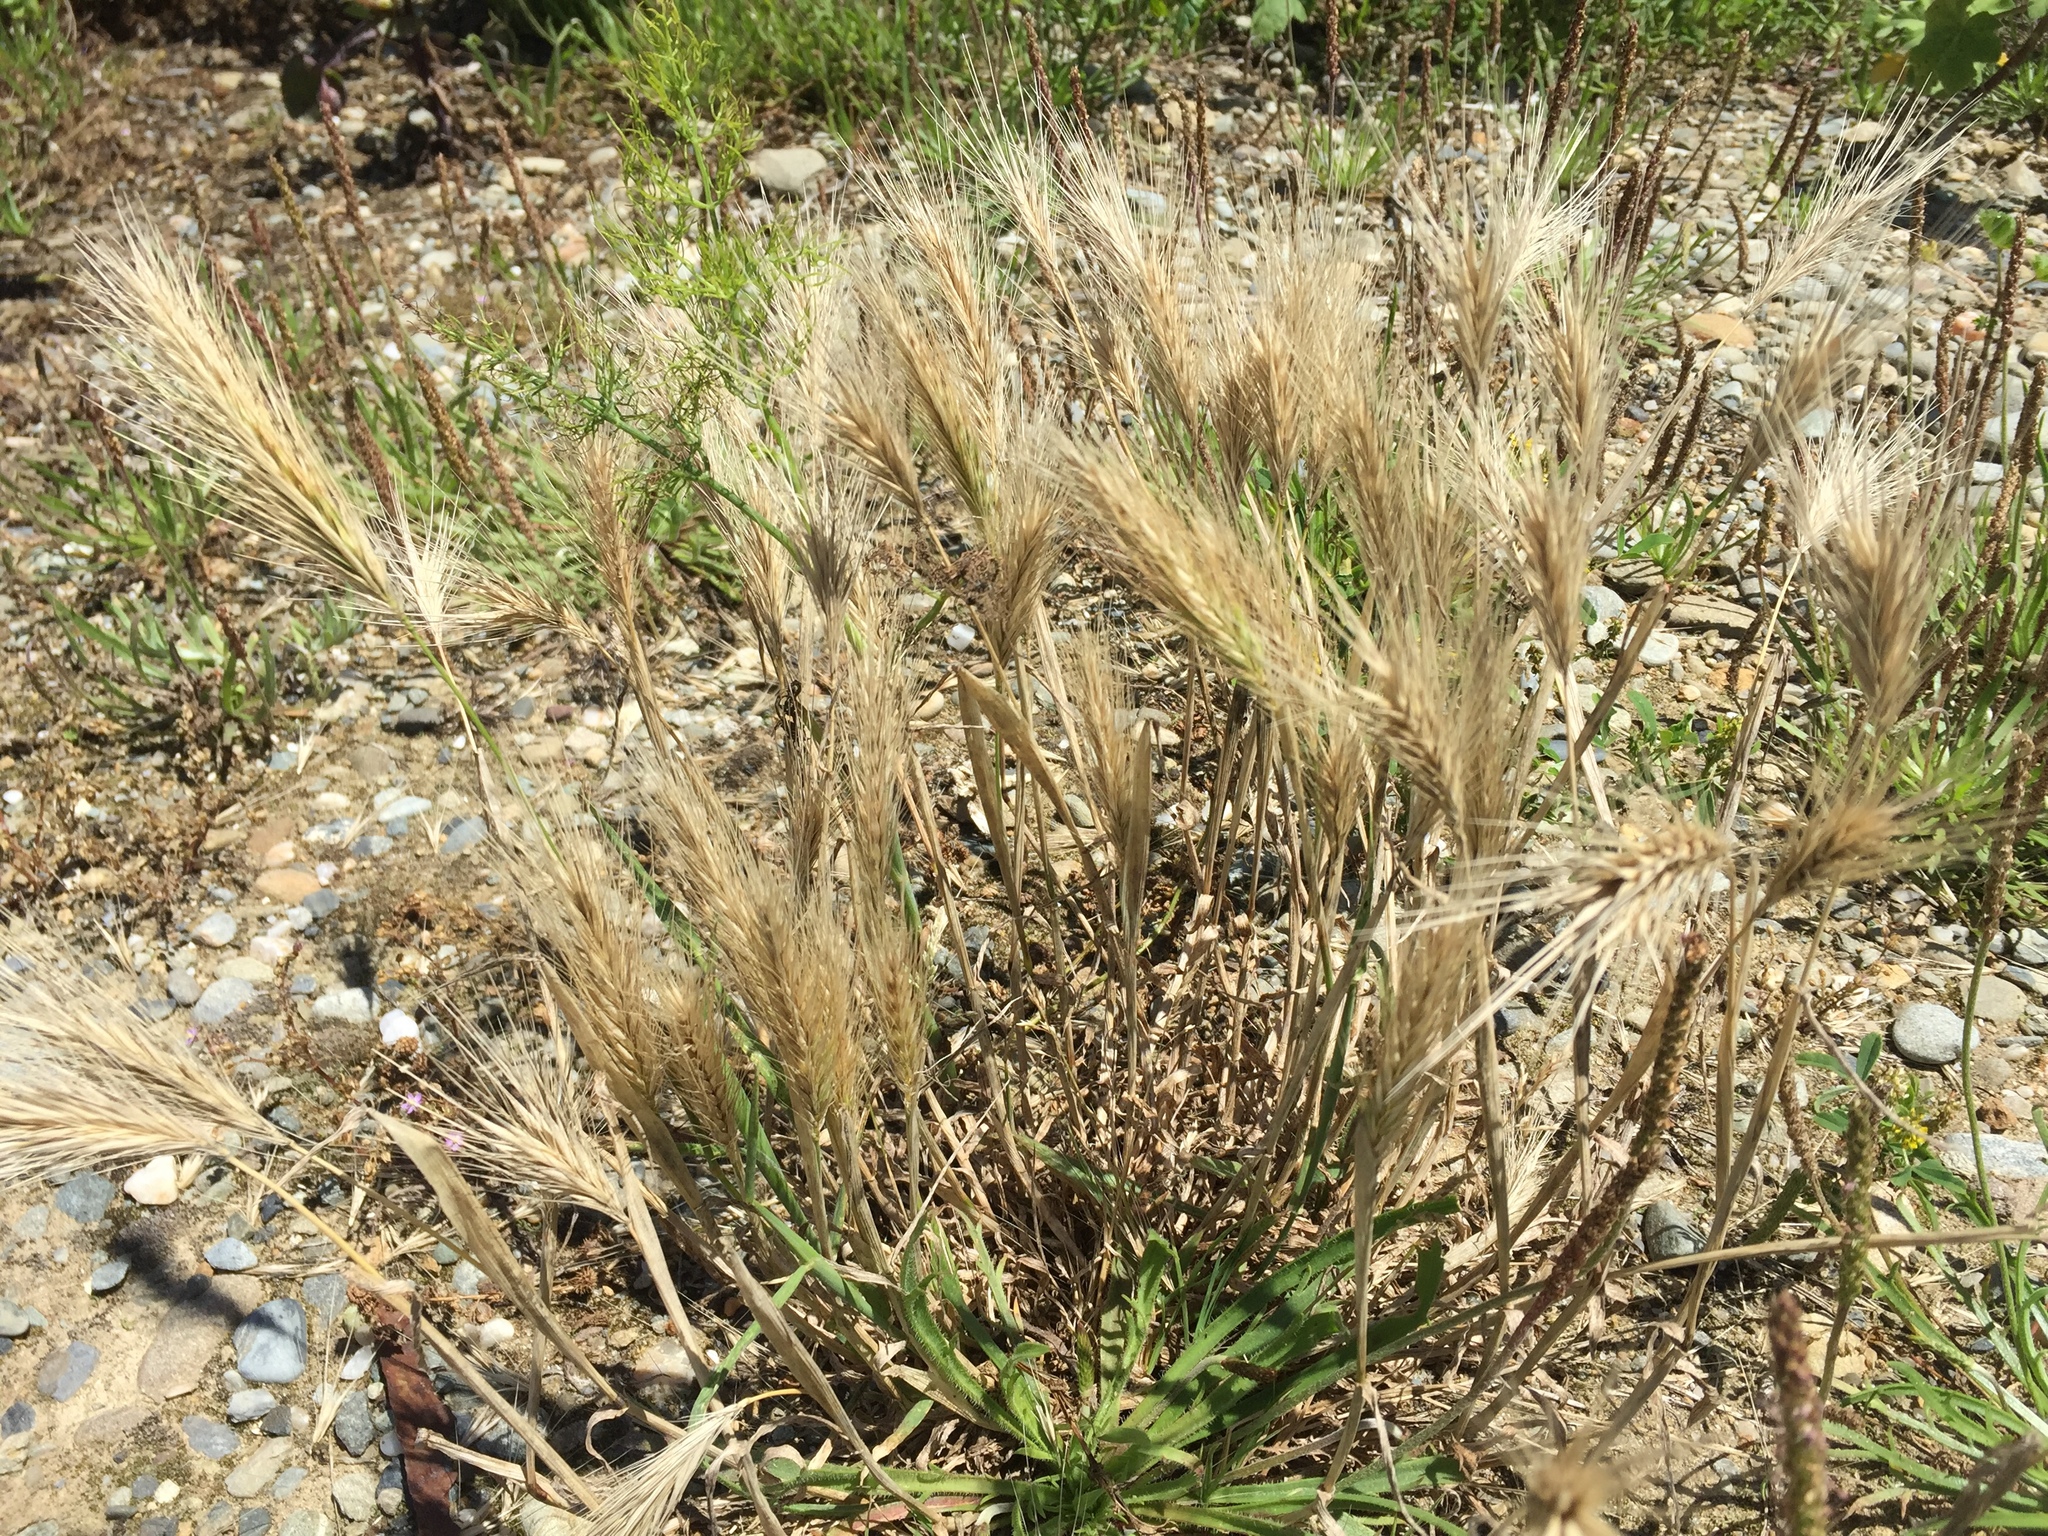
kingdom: Plantae
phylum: Tracheophyta
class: Liliopsida
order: Poales
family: Poaceae
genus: Hordeum
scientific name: Hordeum murinum
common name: Wall barley
